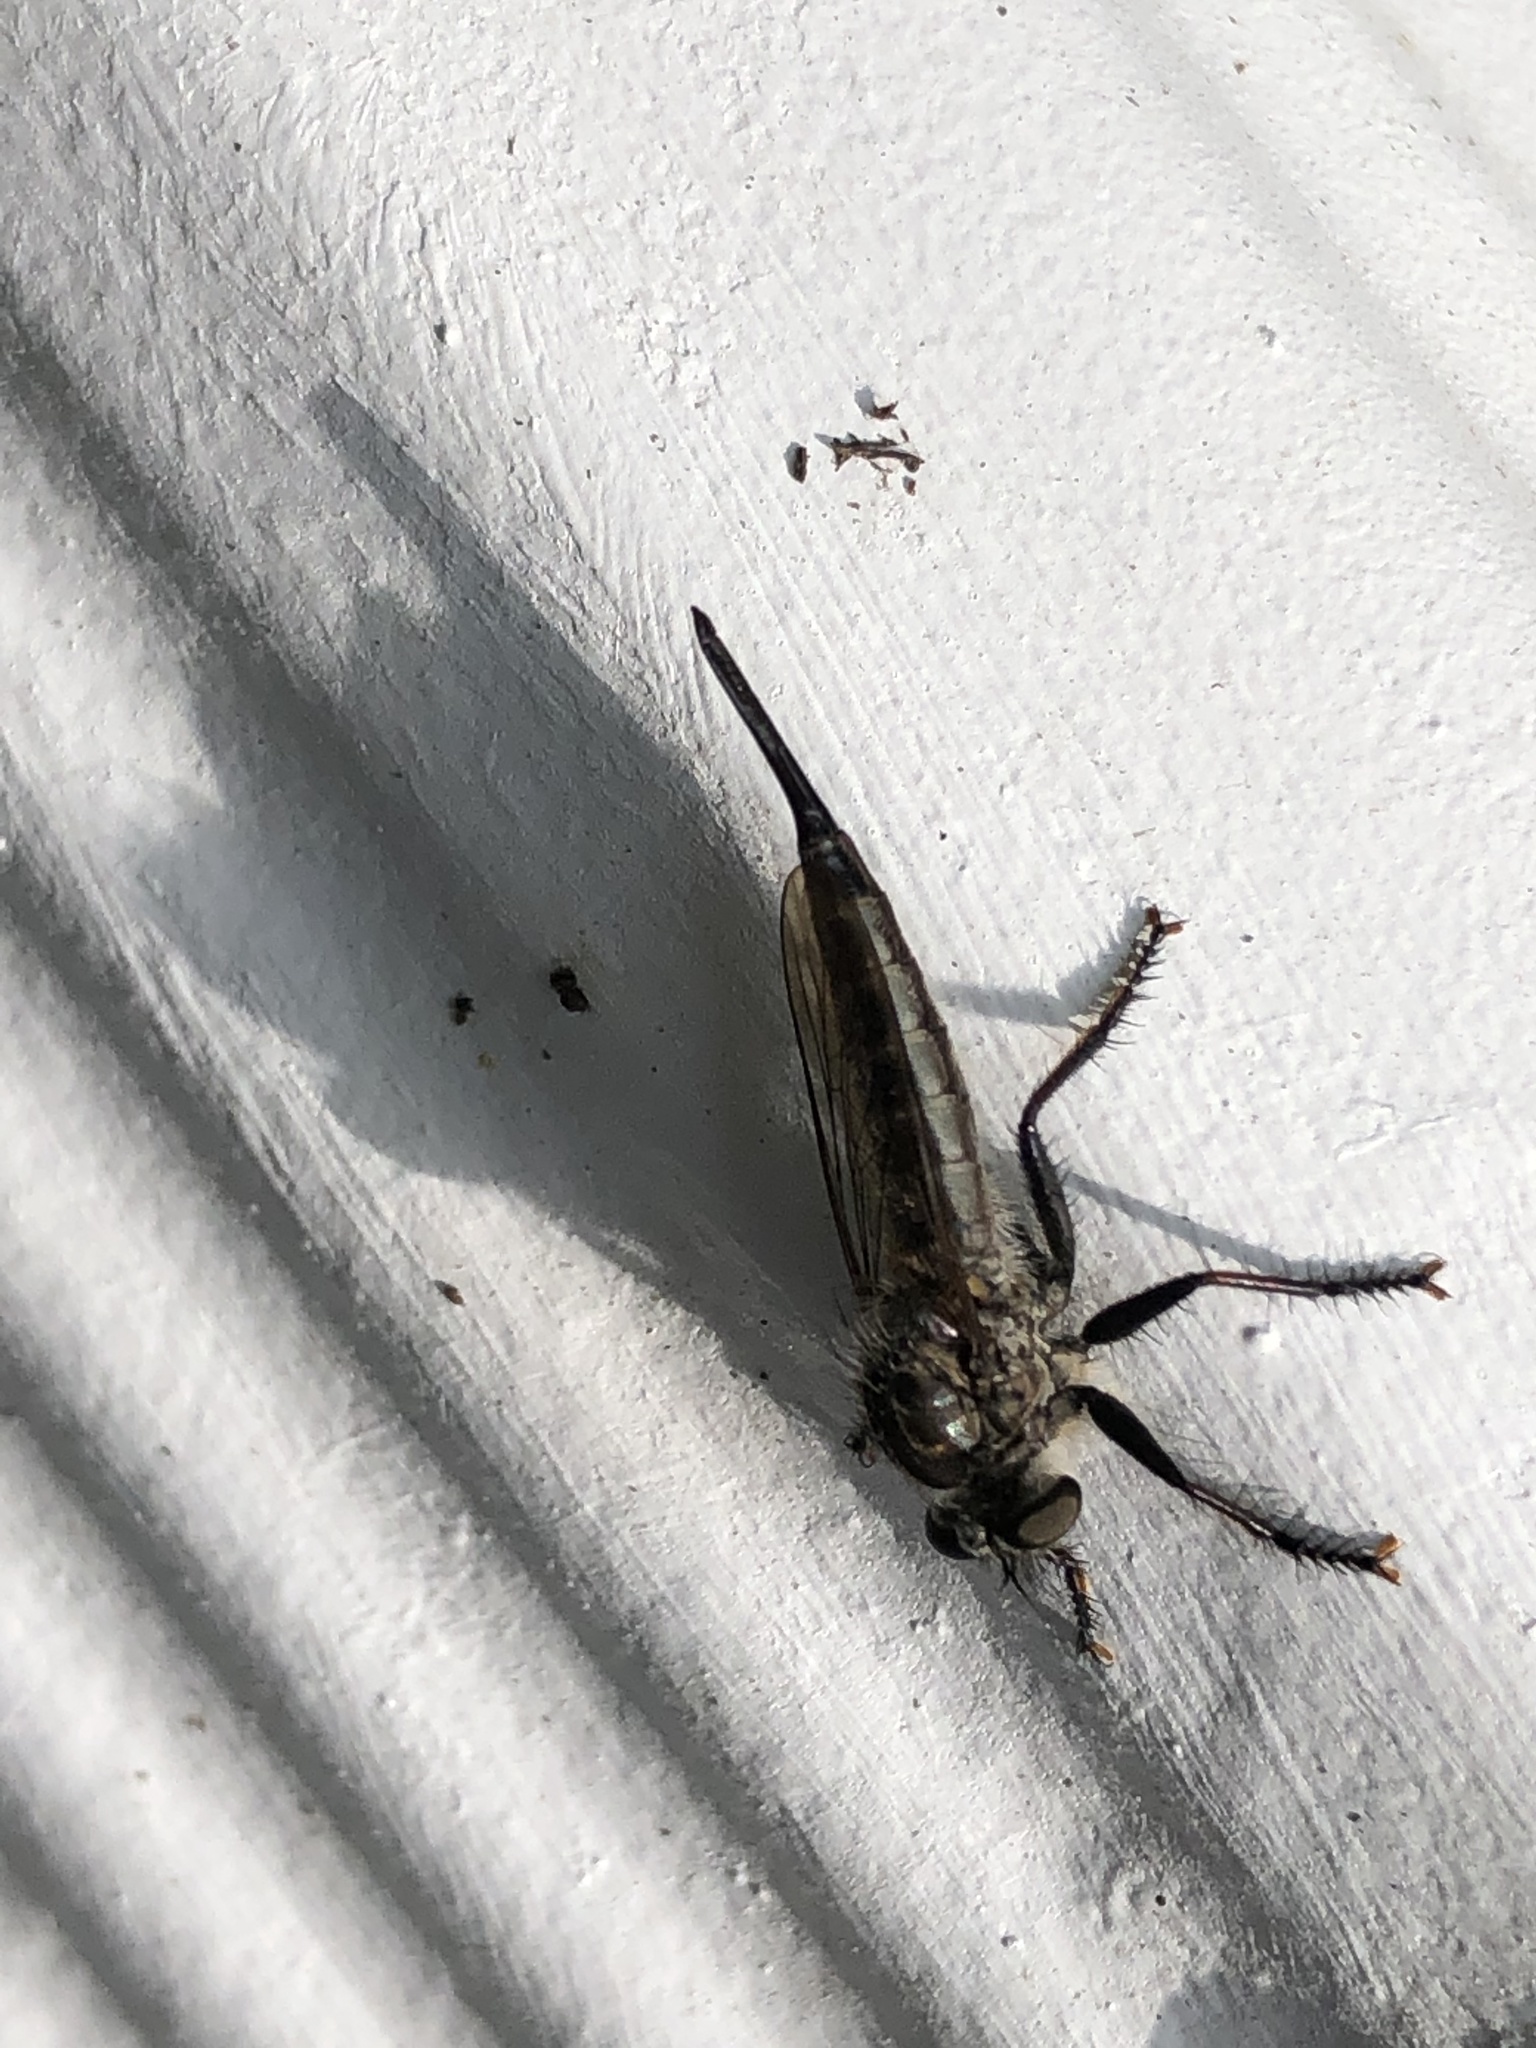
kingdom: Animalia
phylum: Arthropoda
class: Insecta
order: Diptera
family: Asilidae
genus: Efferia
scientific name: Efferia aestuans
